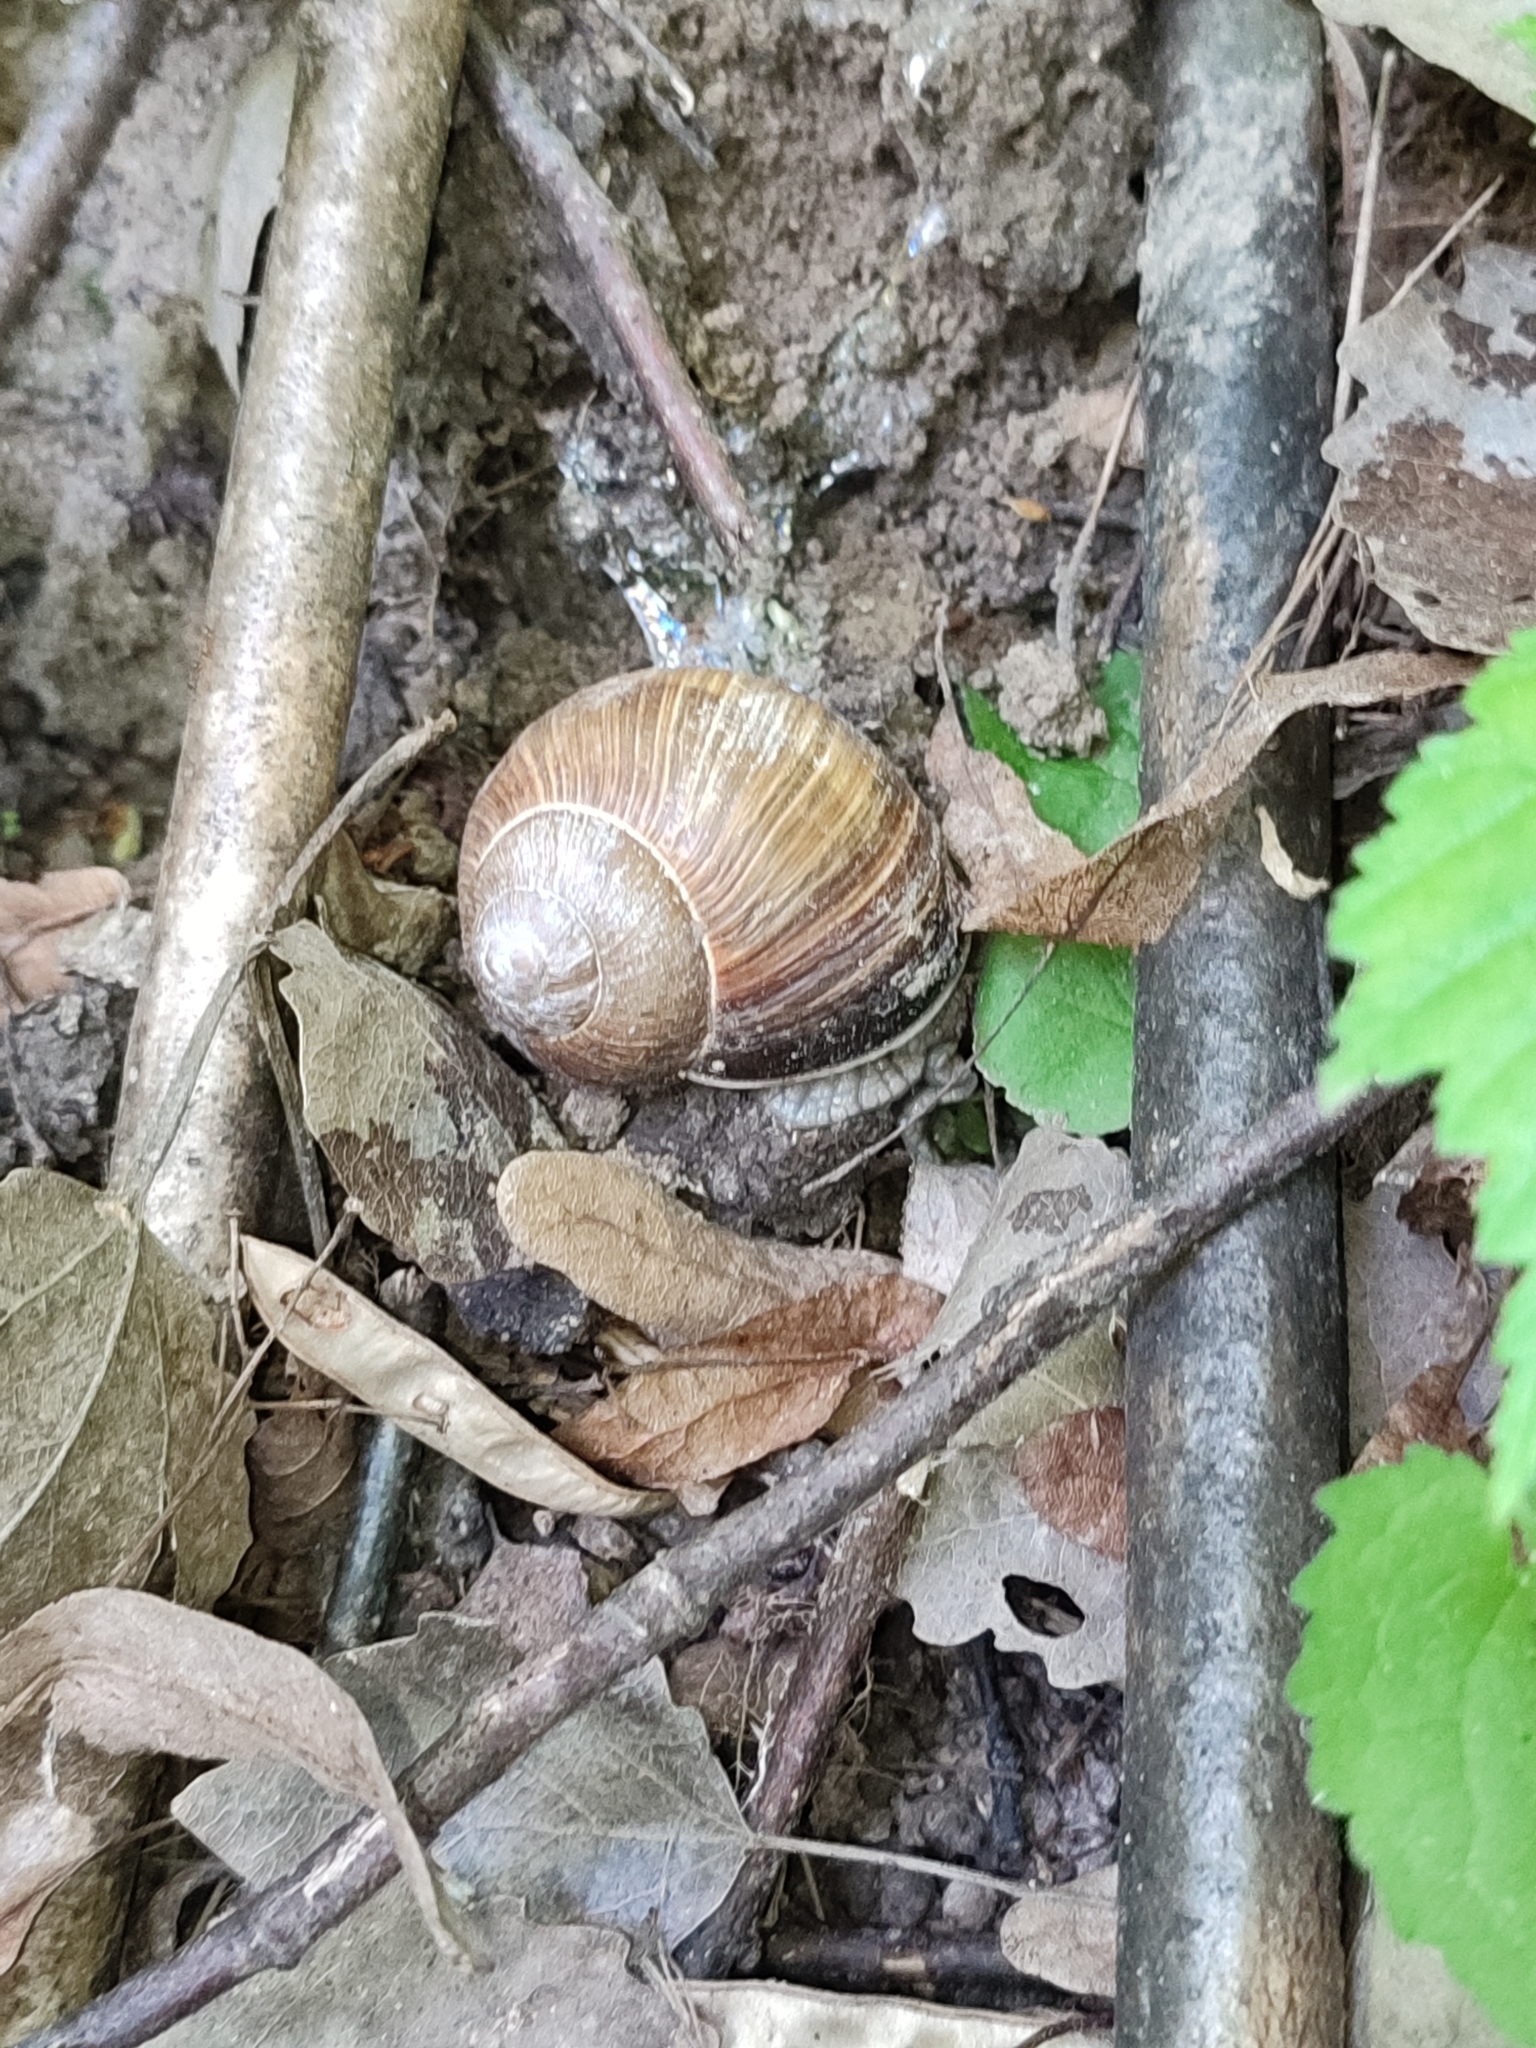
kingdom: Animalia
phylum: Mollusca
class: Gastropoda
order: Stylommatophora
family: Helicidae
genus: Helix
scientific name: Helix pomatia
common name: Roman snail
